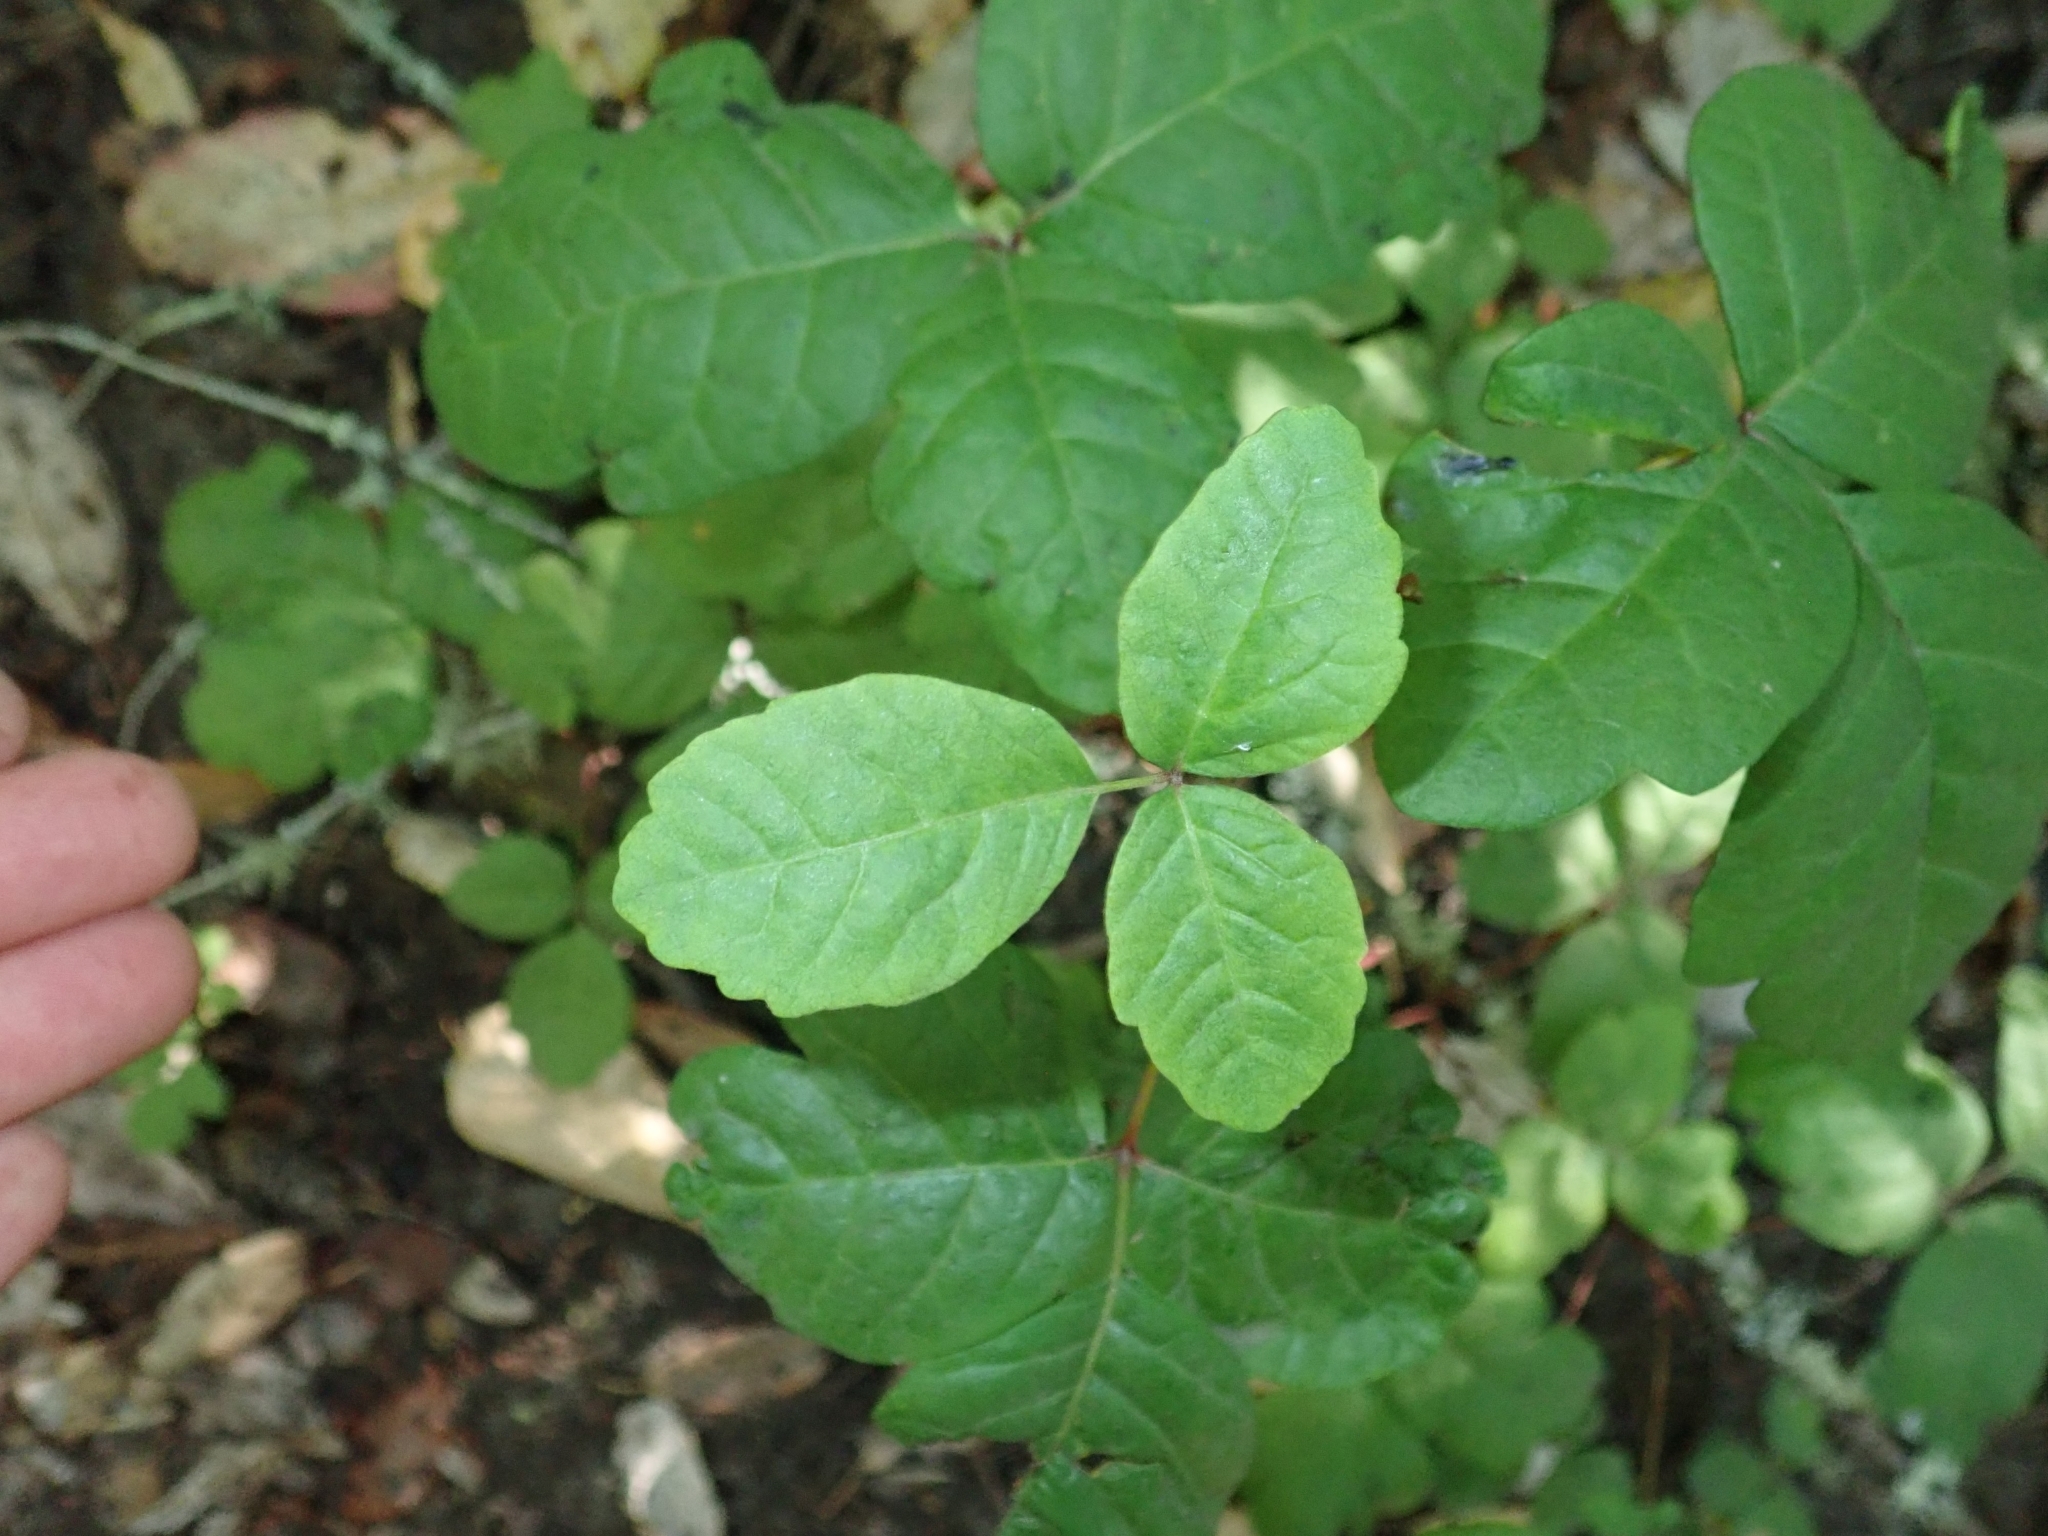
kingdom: Plantae
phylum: Tracheophyta
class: Magnoliopsida
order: Sapindales
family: Anacardiaceae
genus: Toxicodendron
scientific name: Toxicodendron diversilobum
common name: Pacific poison-oak
